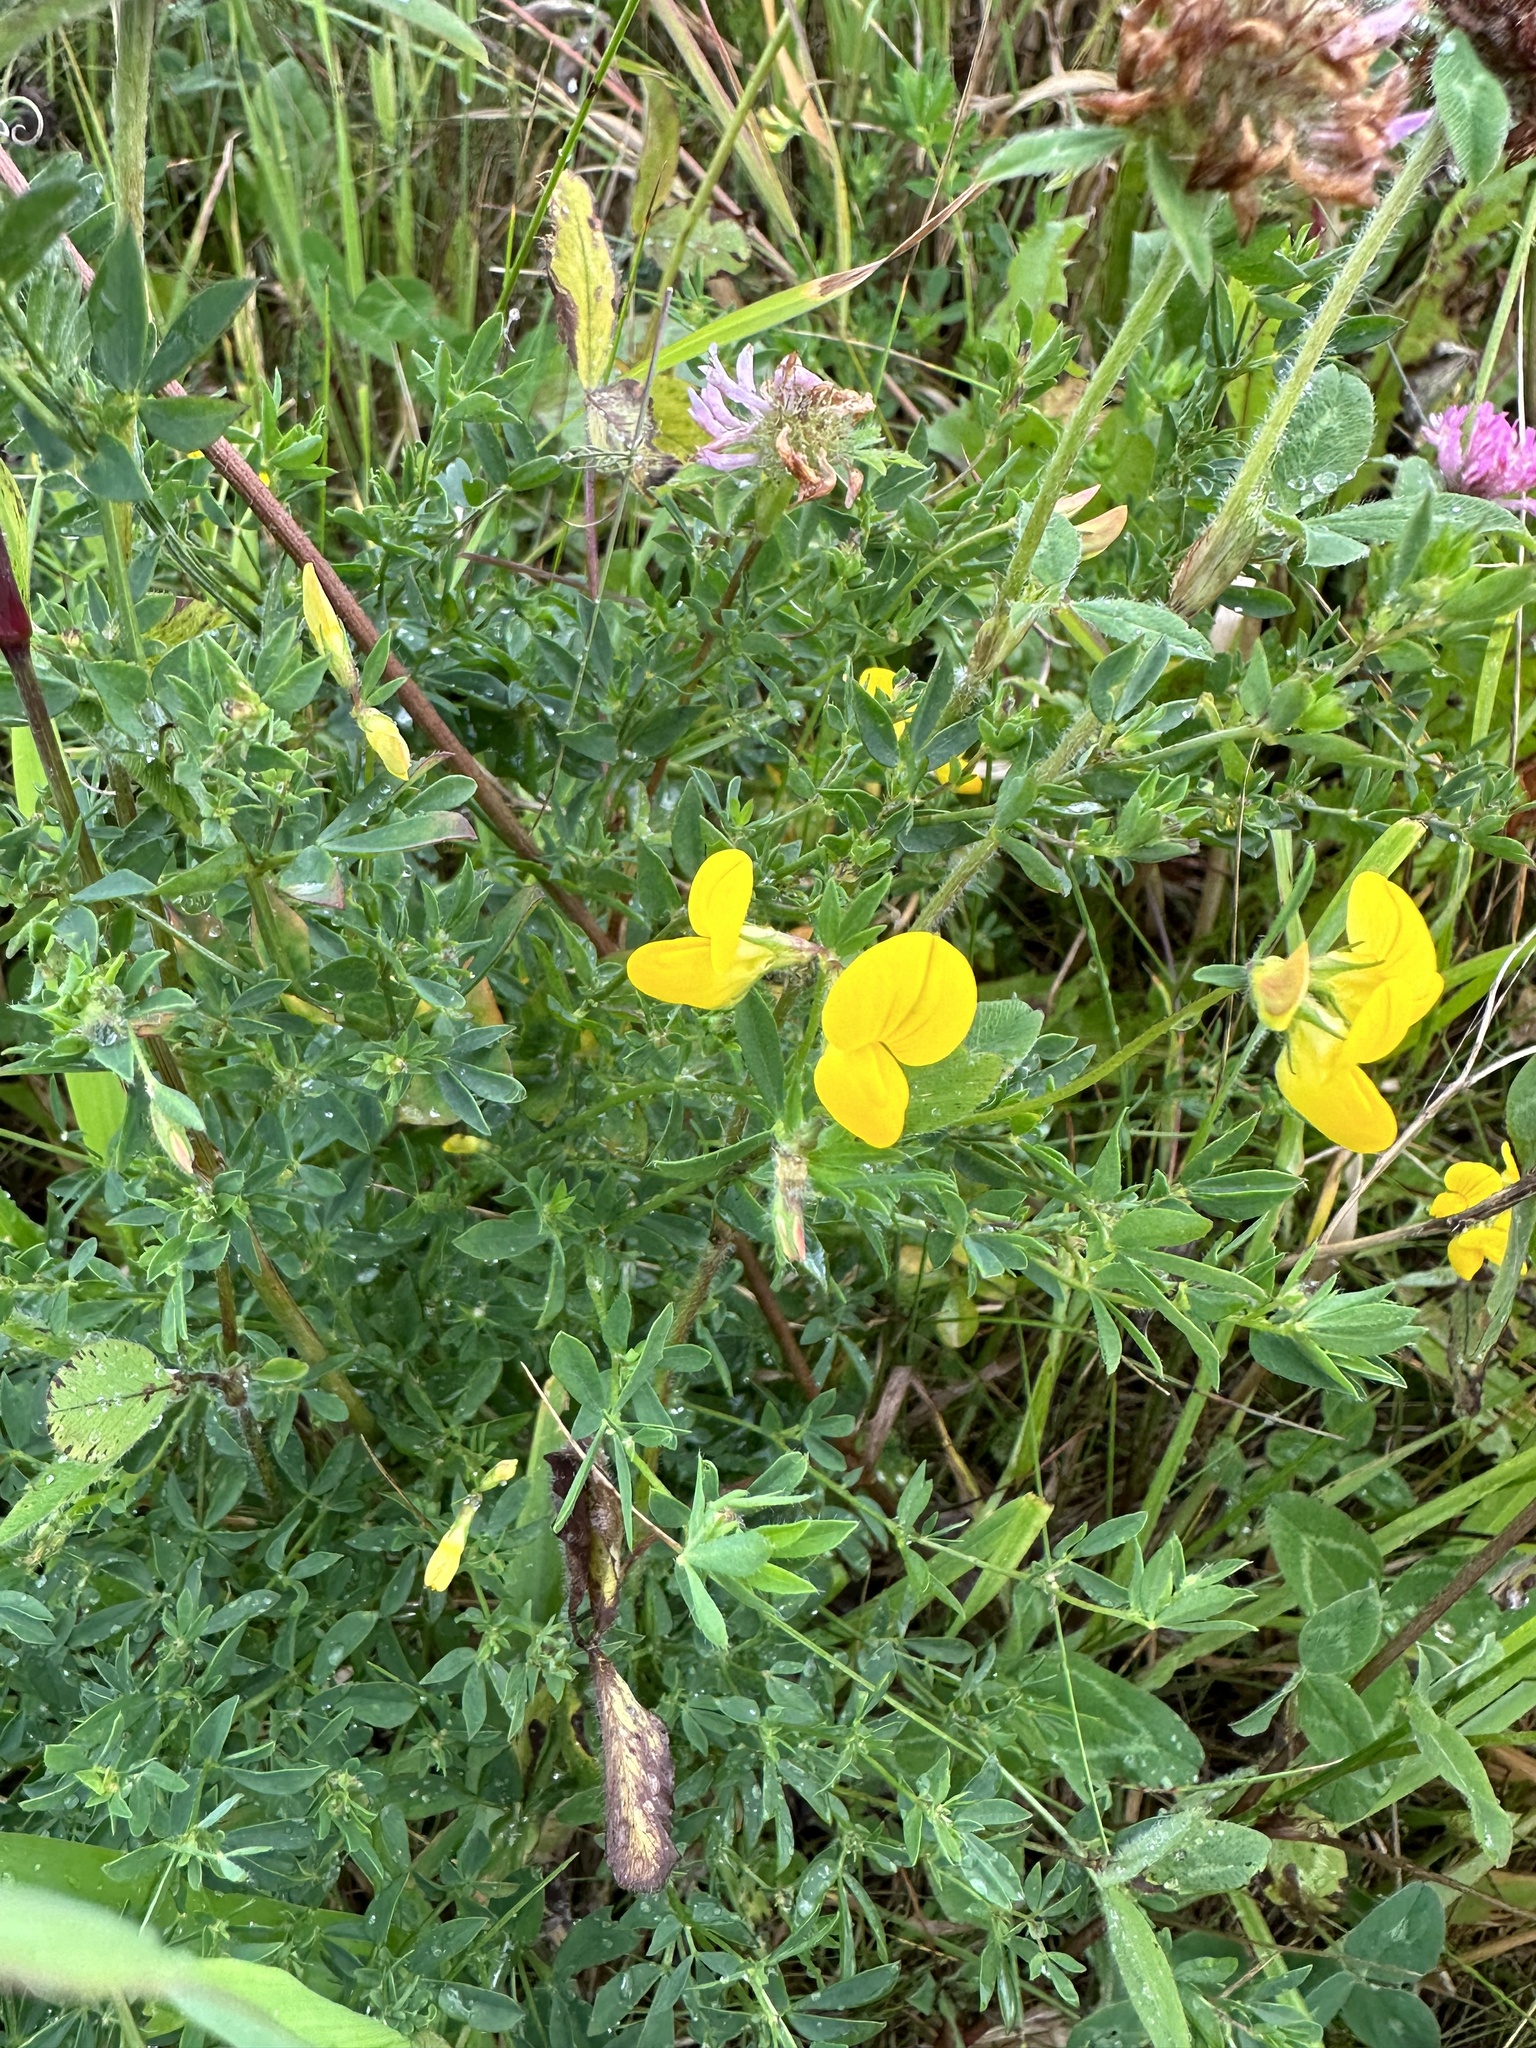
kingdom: Plantae
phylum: Tracheophyta
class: Magnoliopsida
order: Fabales
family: Fabaceae
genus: Lotus
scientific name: Lotus corniculatus
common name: Common bird's-foot-trefoil
